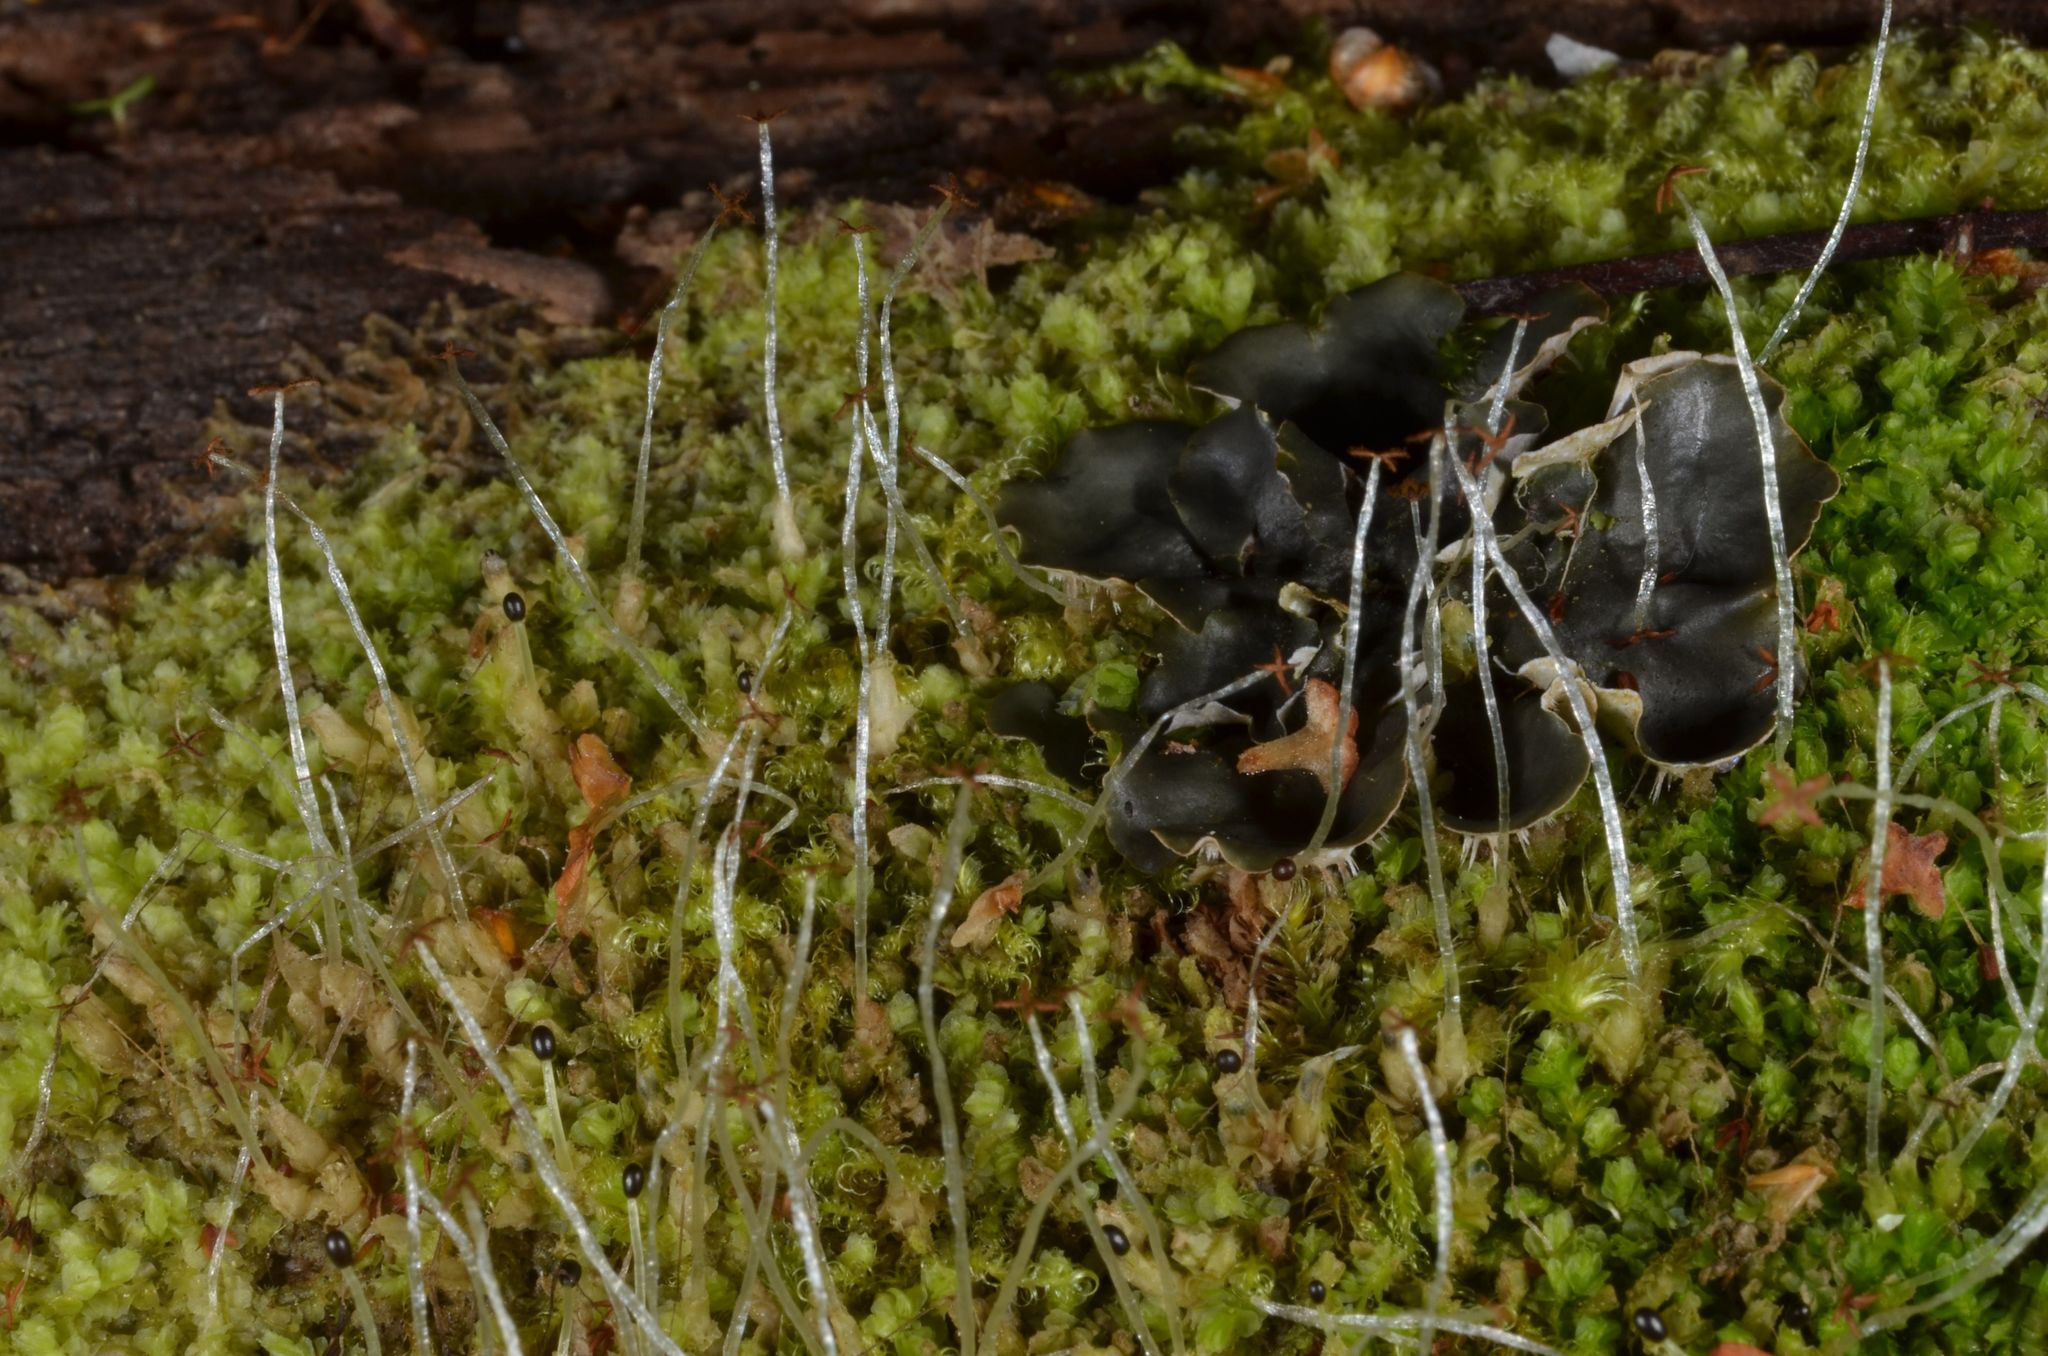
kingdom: Plantae
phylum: Marchantiophyta
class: Jungermanniopsida
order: Jungermanniales
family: Lophocoleaceae
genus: Lophocolea
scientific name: Lophocolea heterophylla
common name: Variable-leaved crestwort
